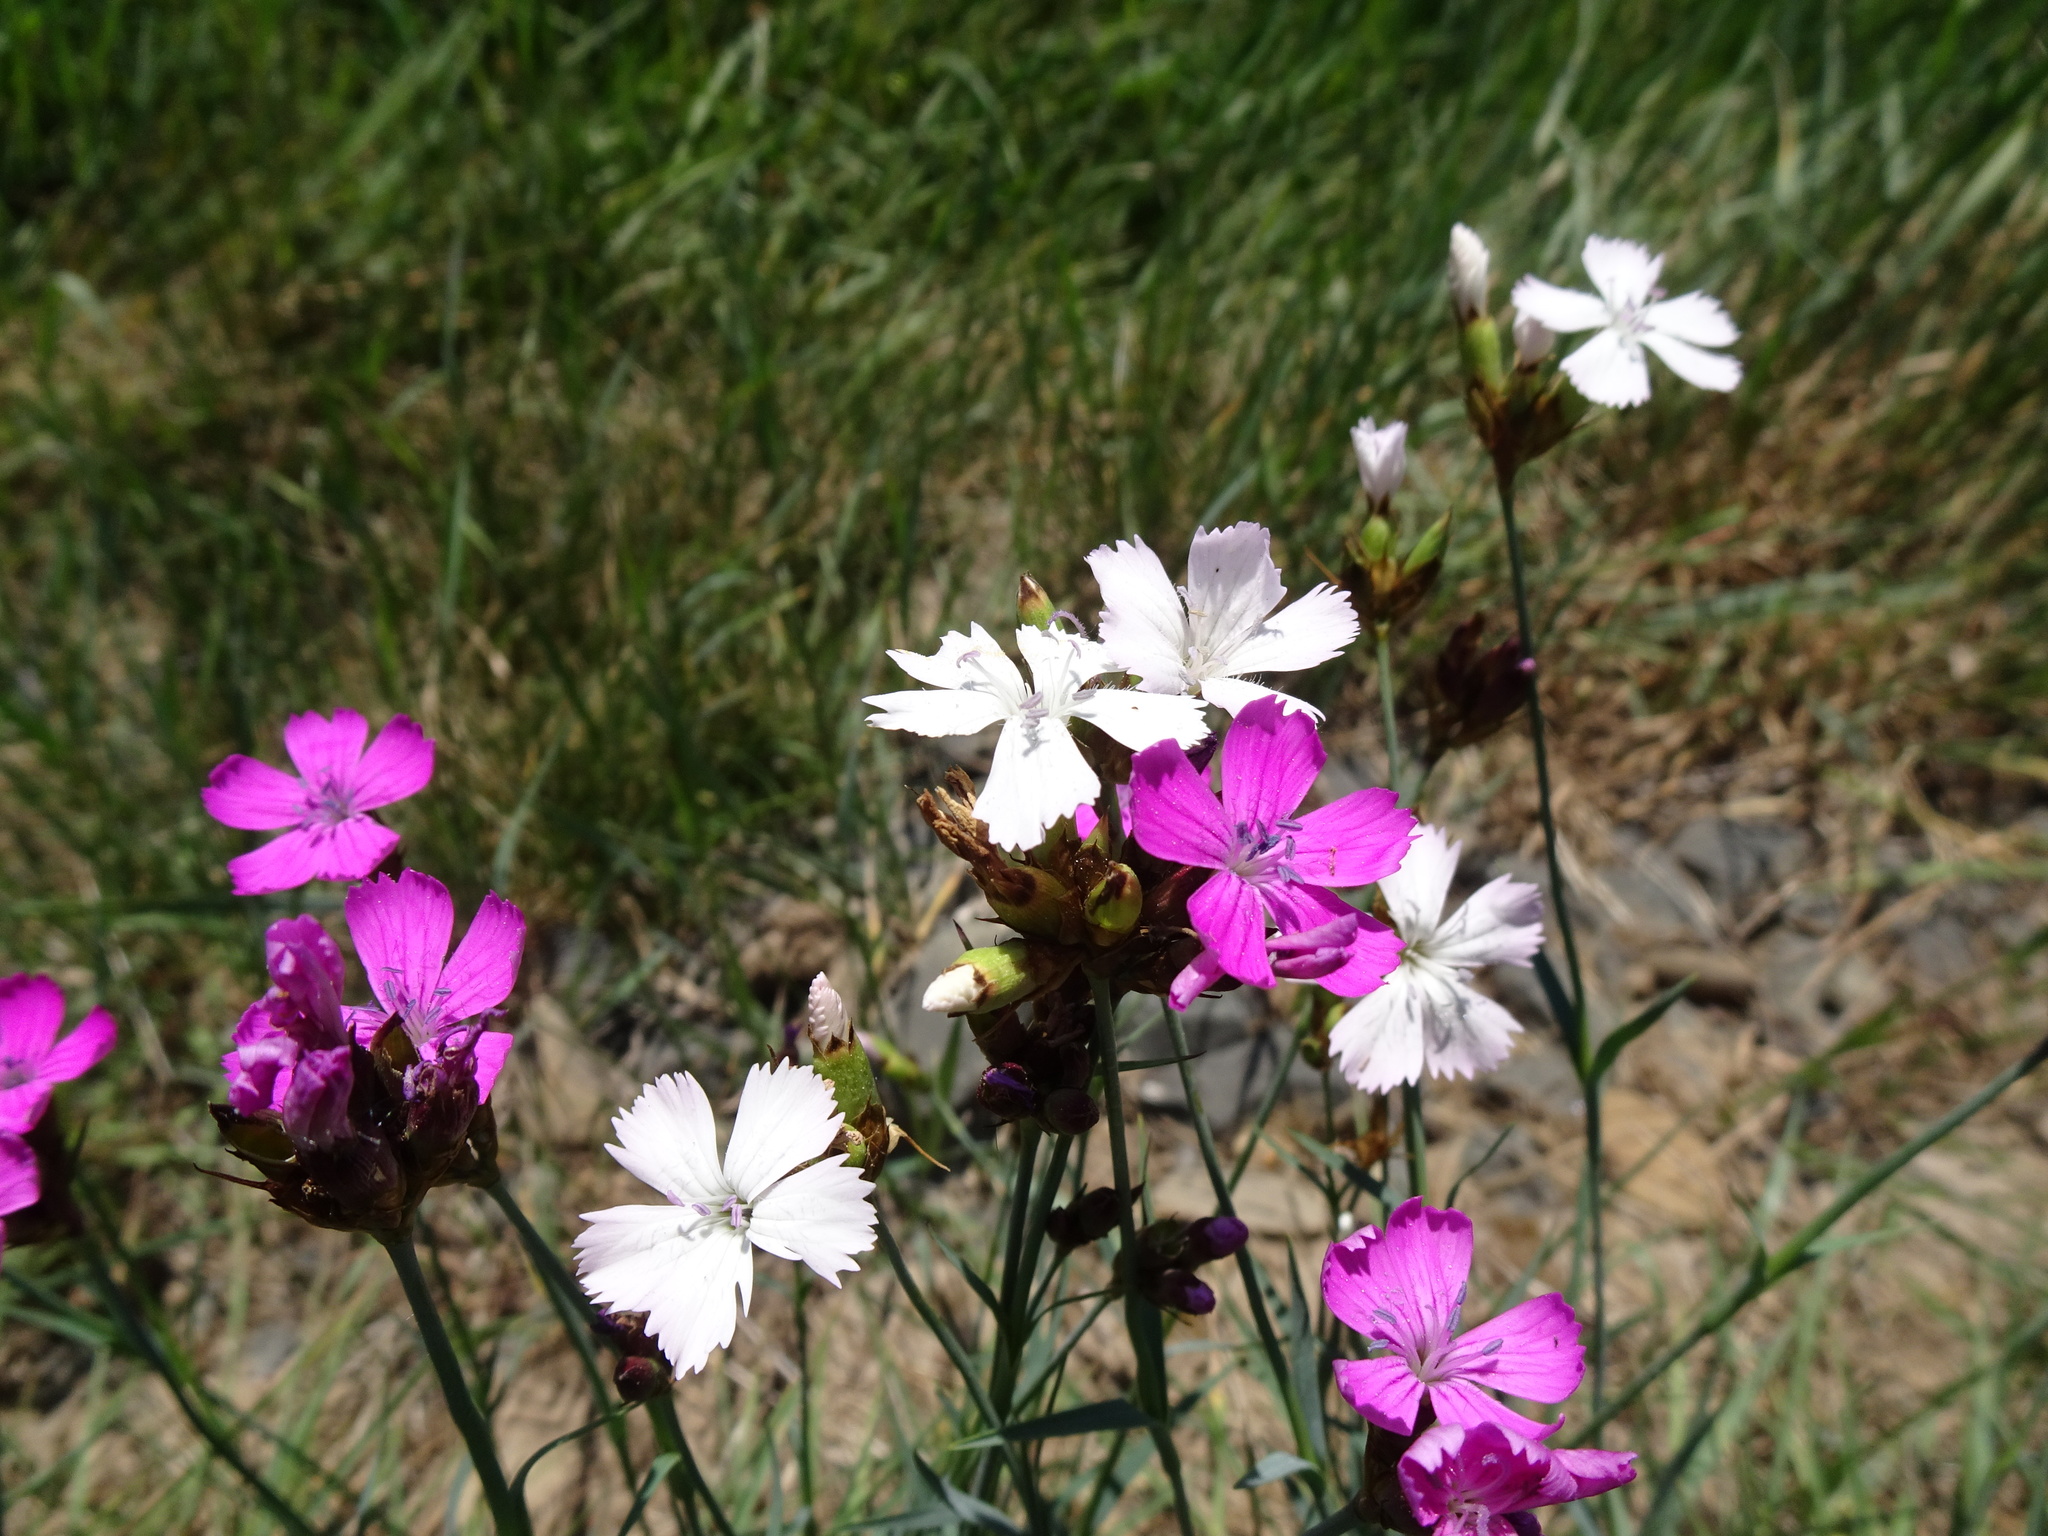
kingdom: Plantae
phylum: Tracheophyta
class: Magnoliopsida
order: Caryophyllales
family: Caryophyllaceae
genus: Dianthus
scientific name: Dianthus carthusianorum
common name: Carthusian pink
